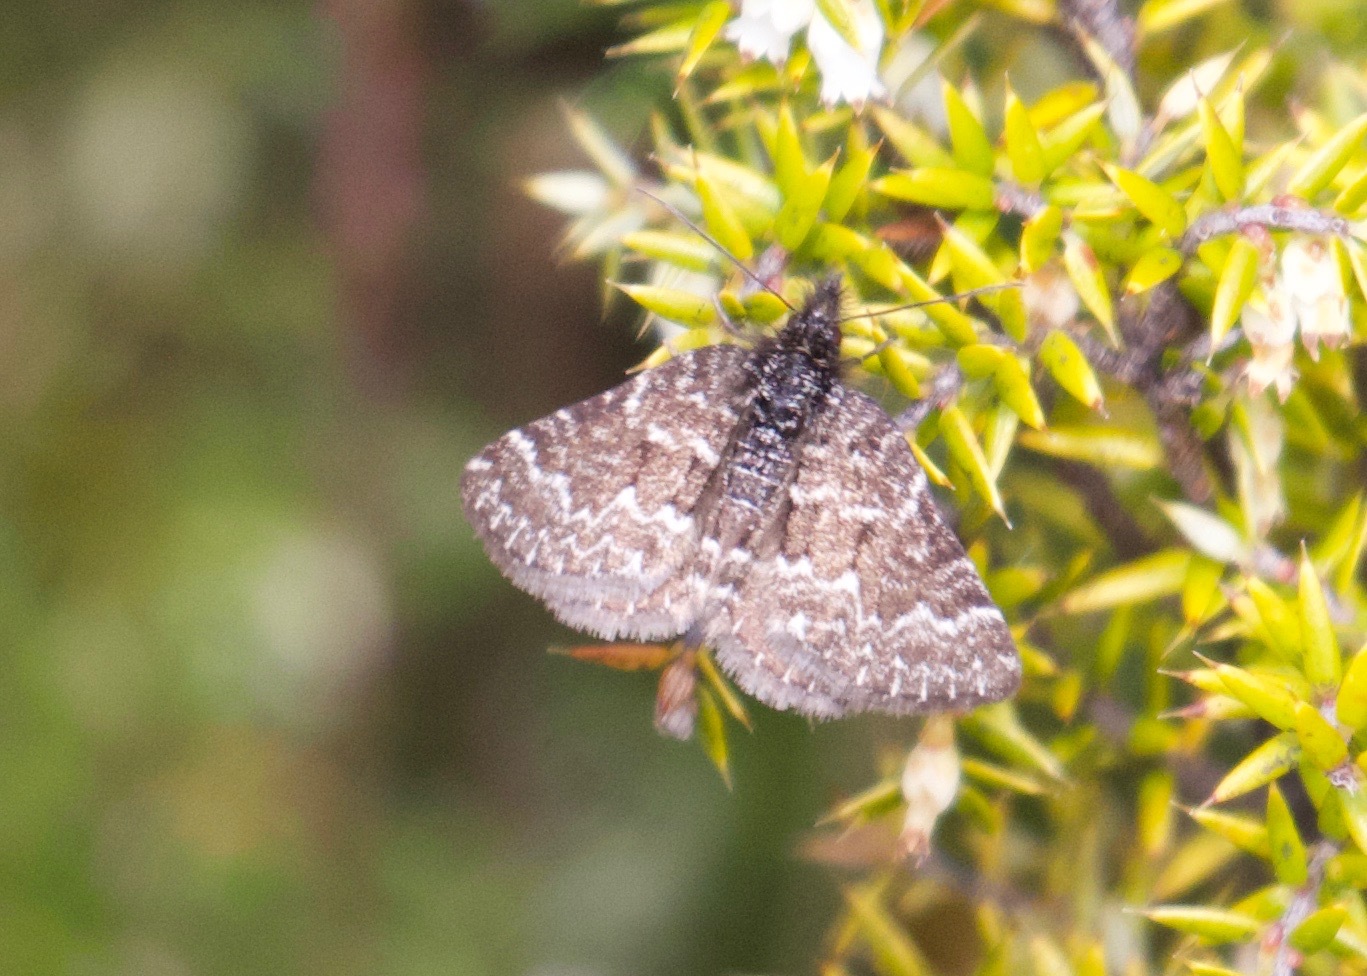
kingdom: Animalia
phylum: Arthropoda
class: Insecta
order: Lepidoptera
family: Geometridae
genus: Chrysolarentia
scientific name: Chrysolarentia melanchlaena
